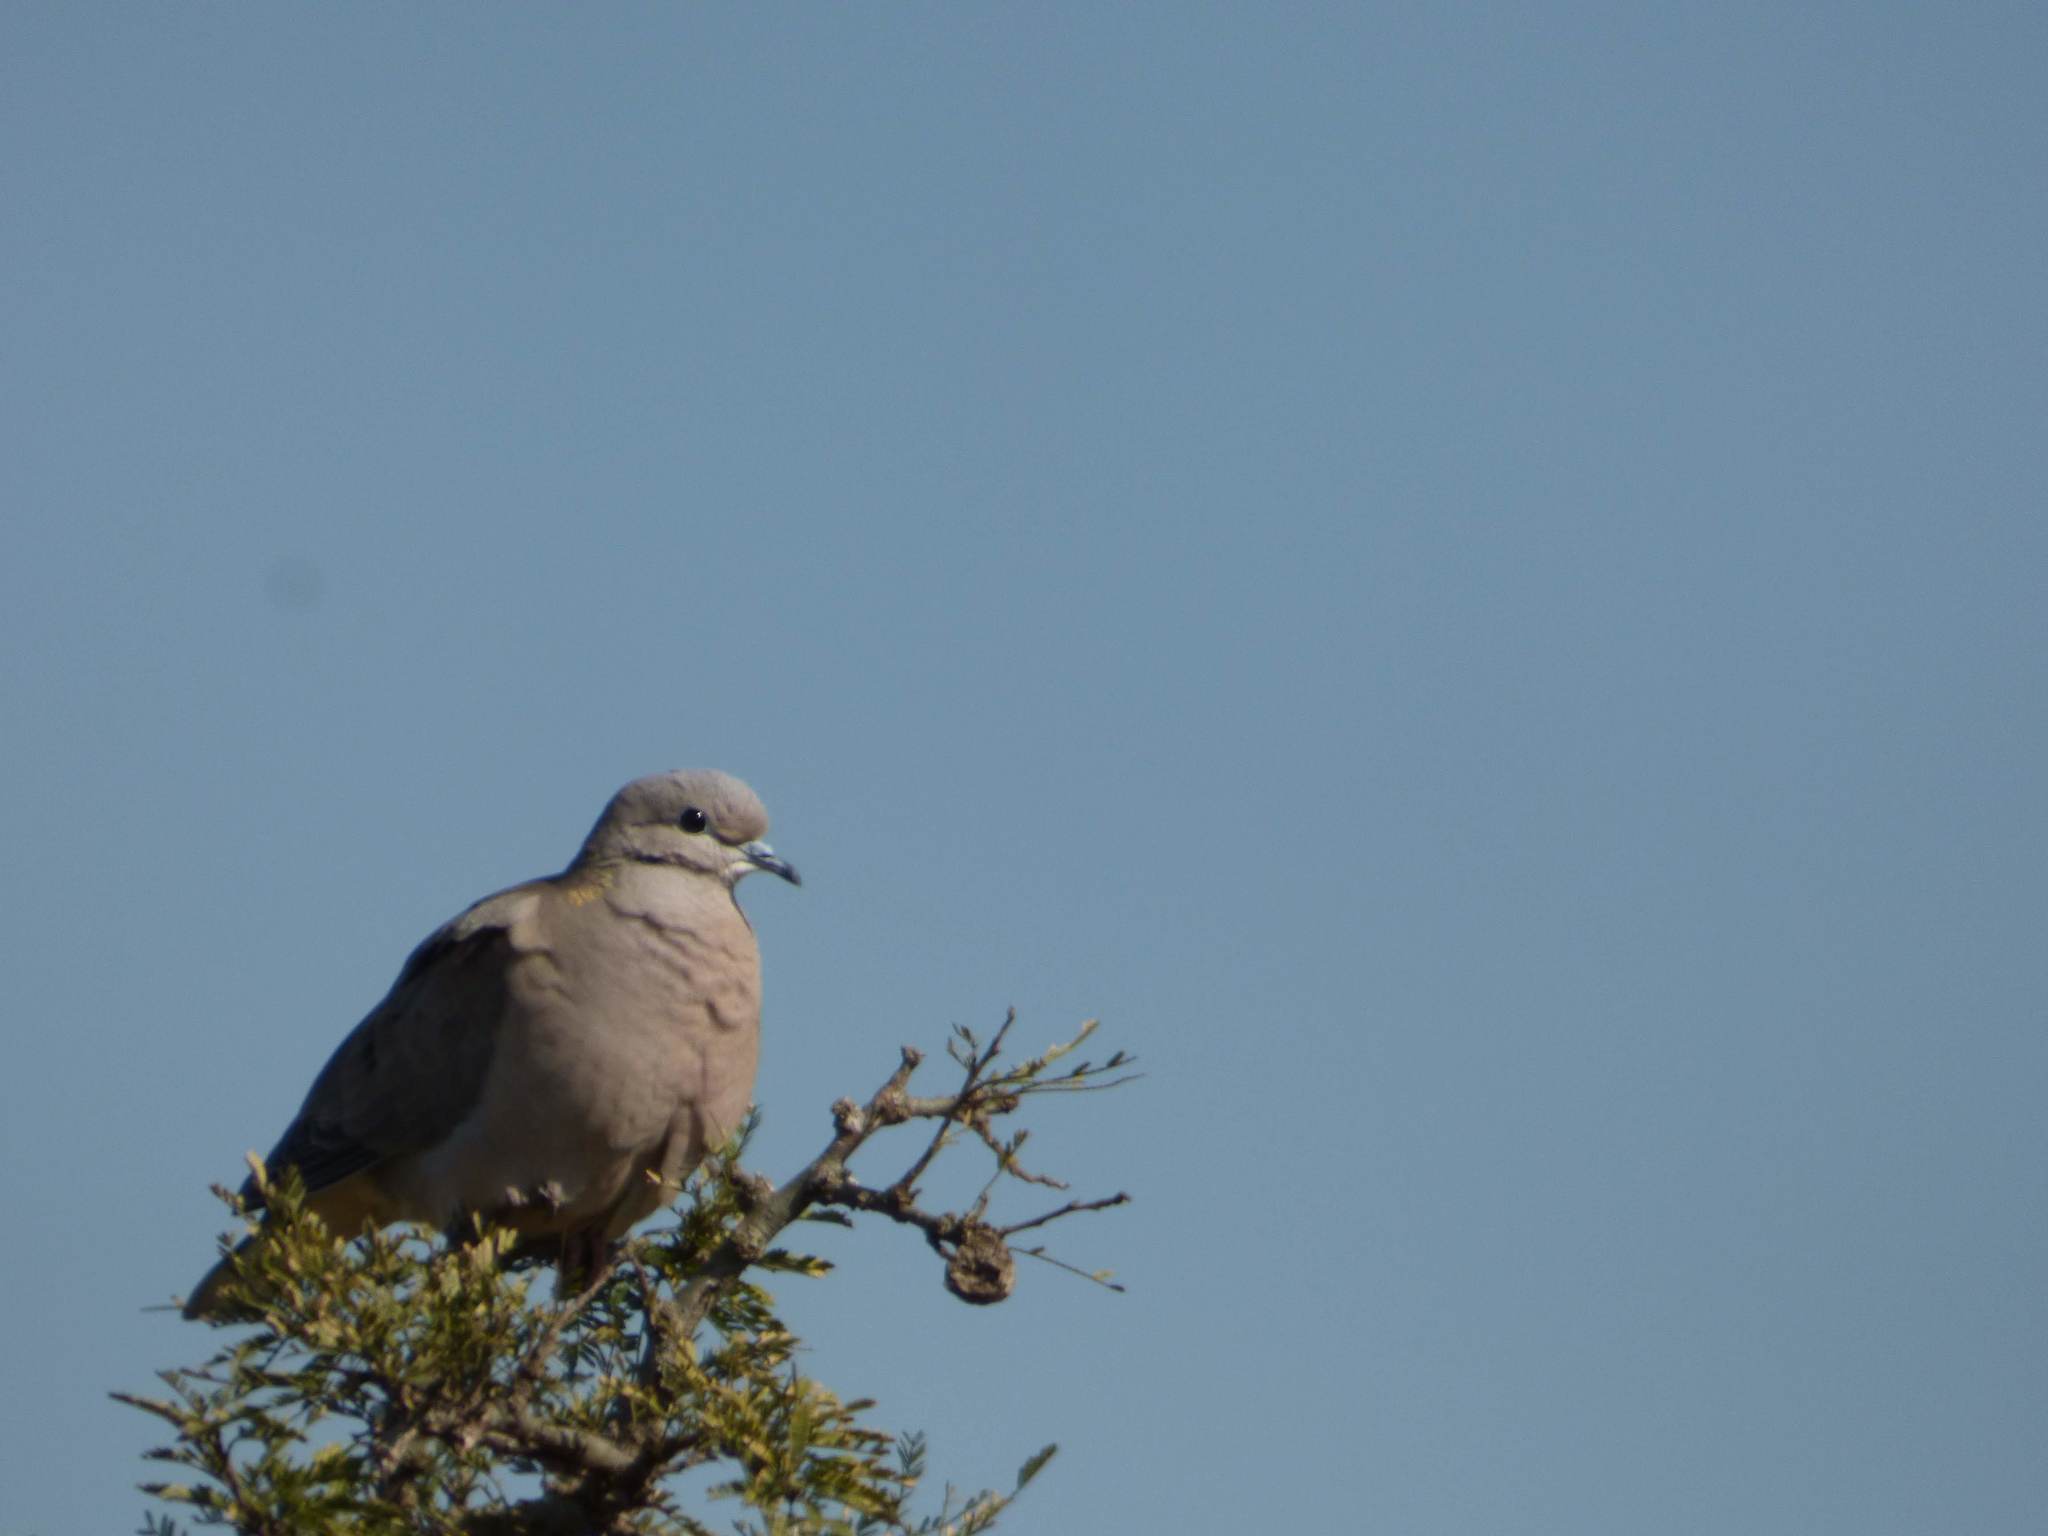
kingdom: Animalia
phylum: Chordata
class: Aves
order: Columbiformes
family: Columbidae
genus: Zenaida
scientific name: Zenaida auriculata
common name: Eared dove
